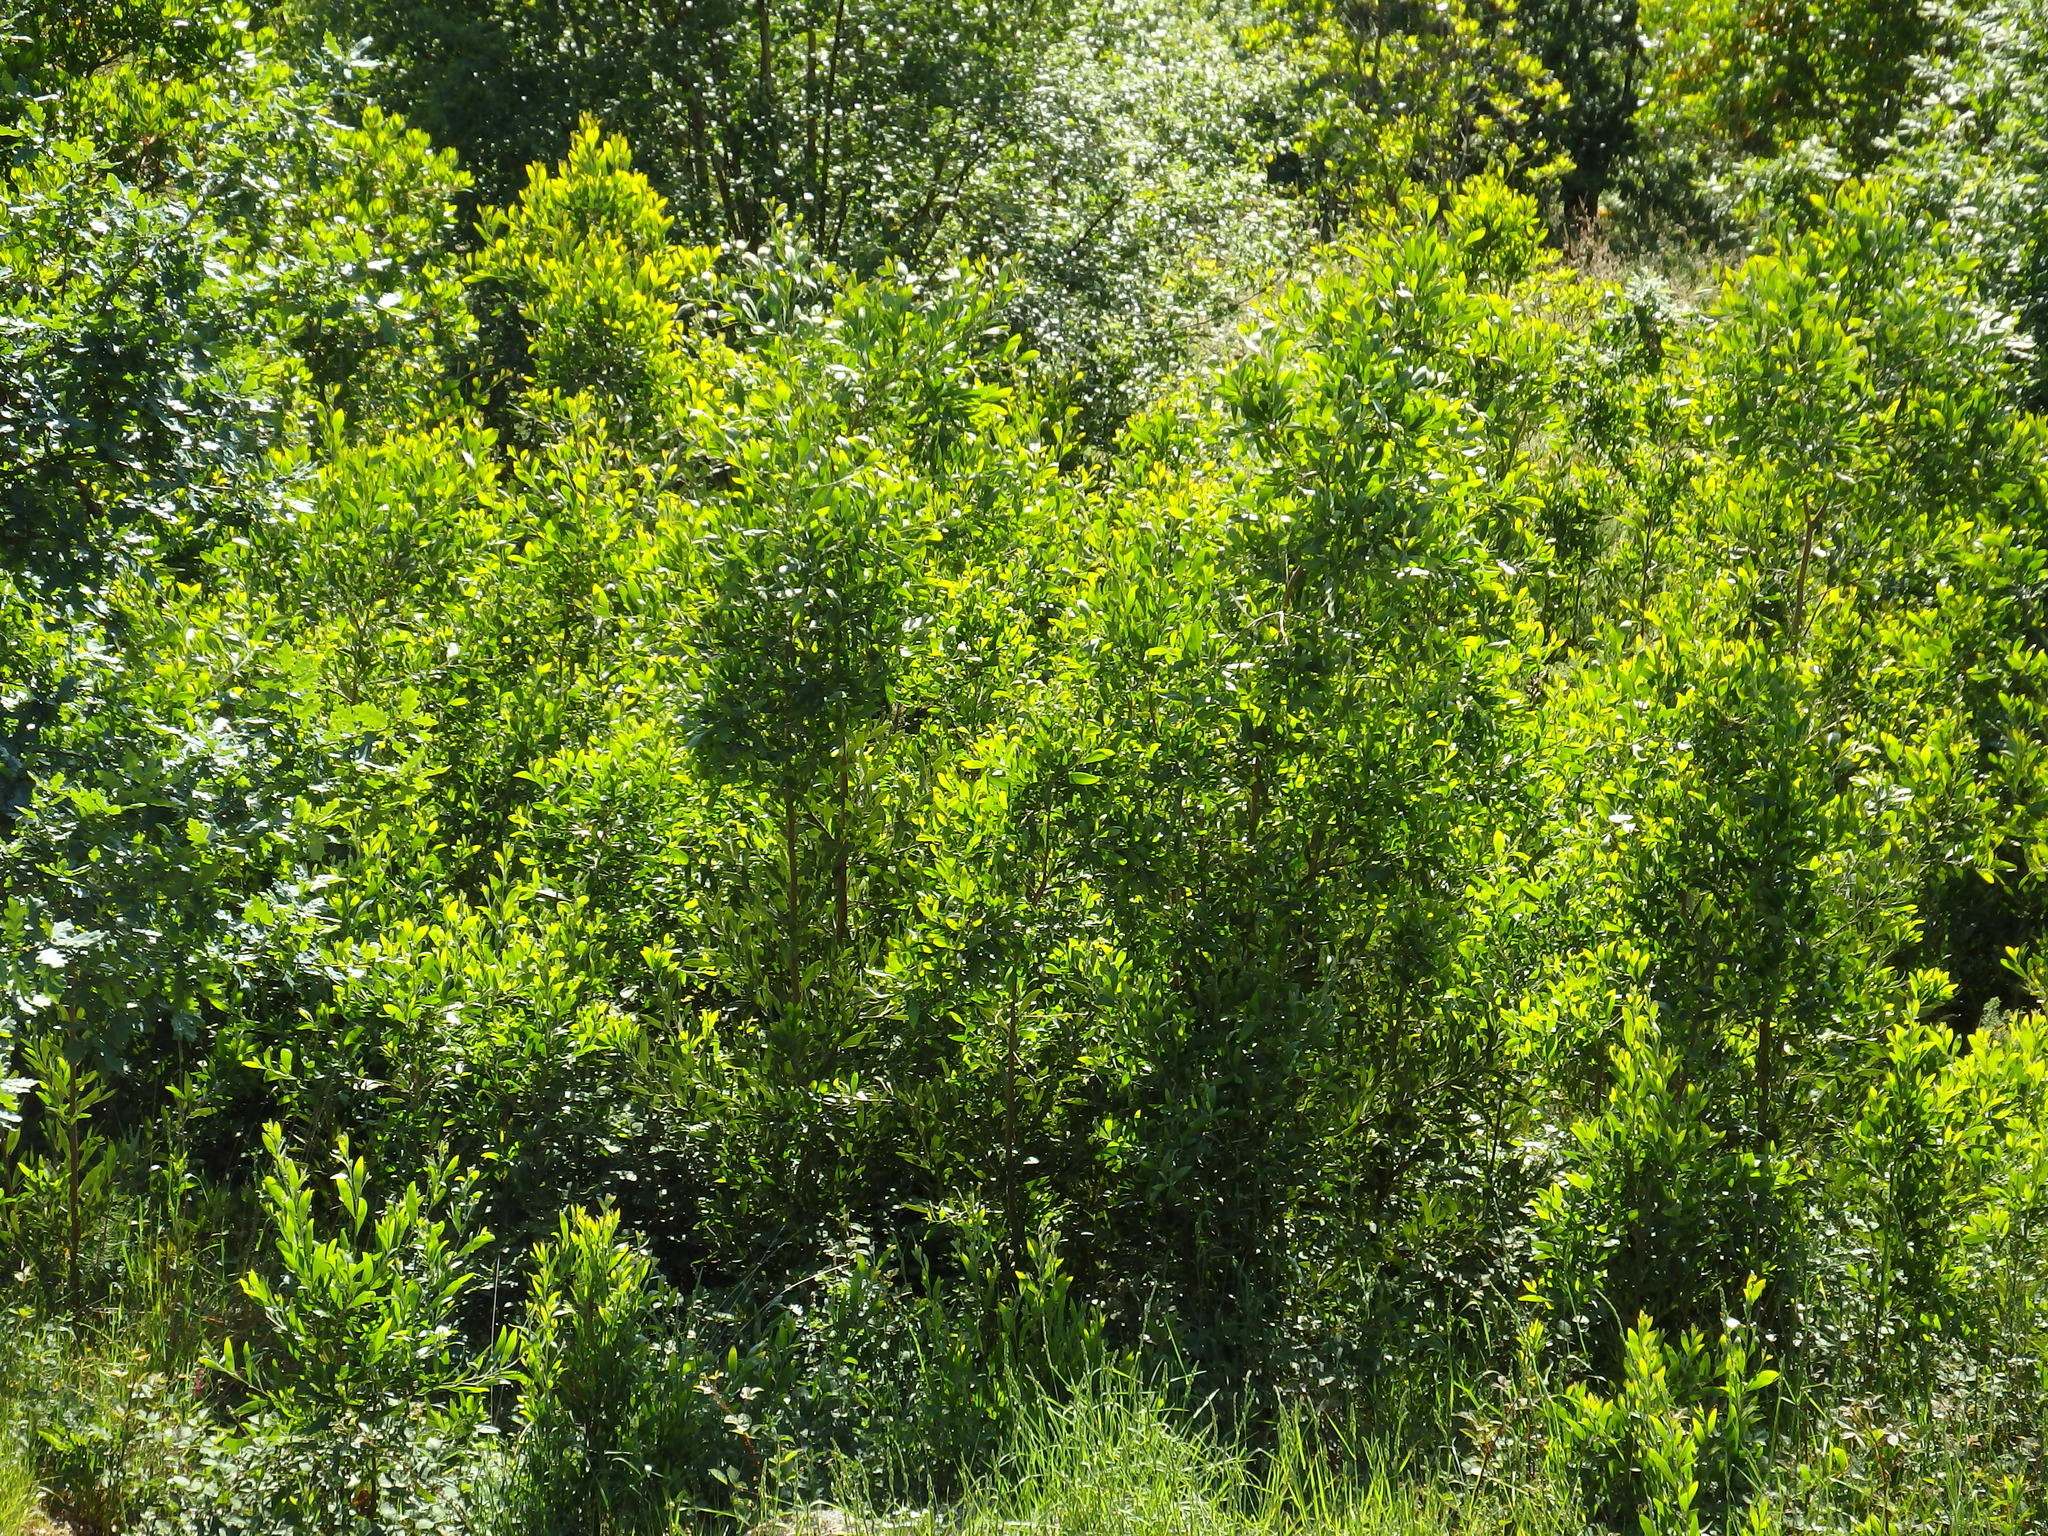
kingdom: Plantae
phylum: Tracheophyta
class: Magnoliopsida
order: Fabales
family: Fabaceae
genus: Acacia
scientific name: Acacia melanoxylon
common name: Blackwood
